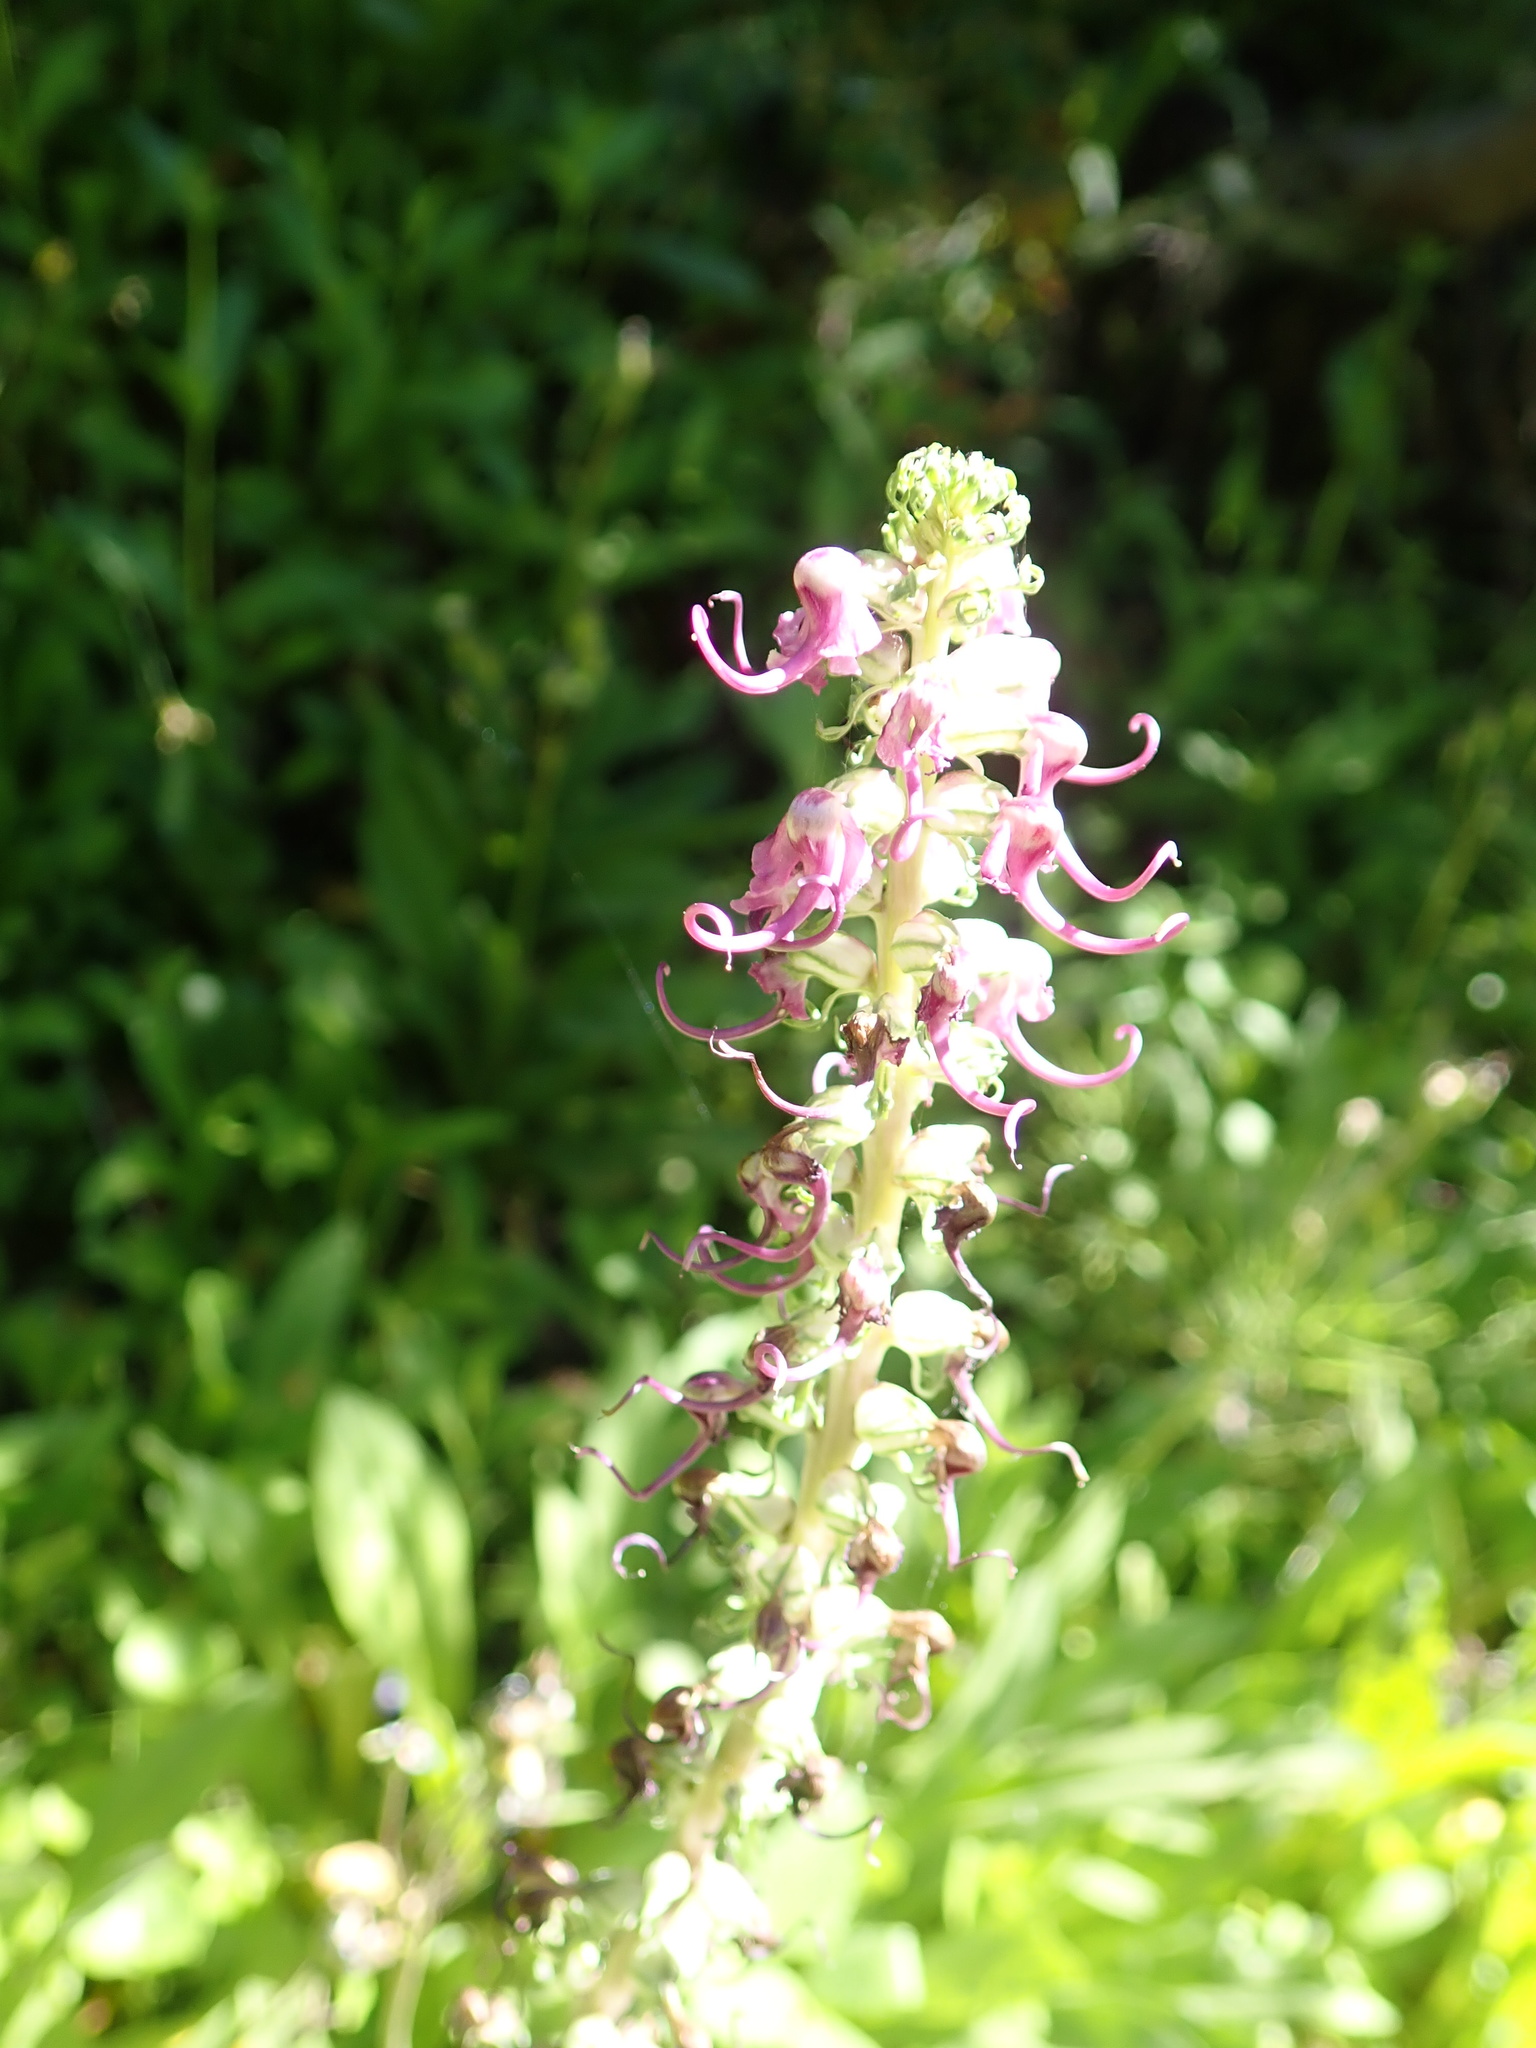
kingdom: Plantae
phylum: Tracheophyta
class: Magnoliopsida
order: Lamiales
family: Orobanchaceae
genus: Pedicularis
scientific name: Pedicularis groenlandica
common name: Elephant's-head
